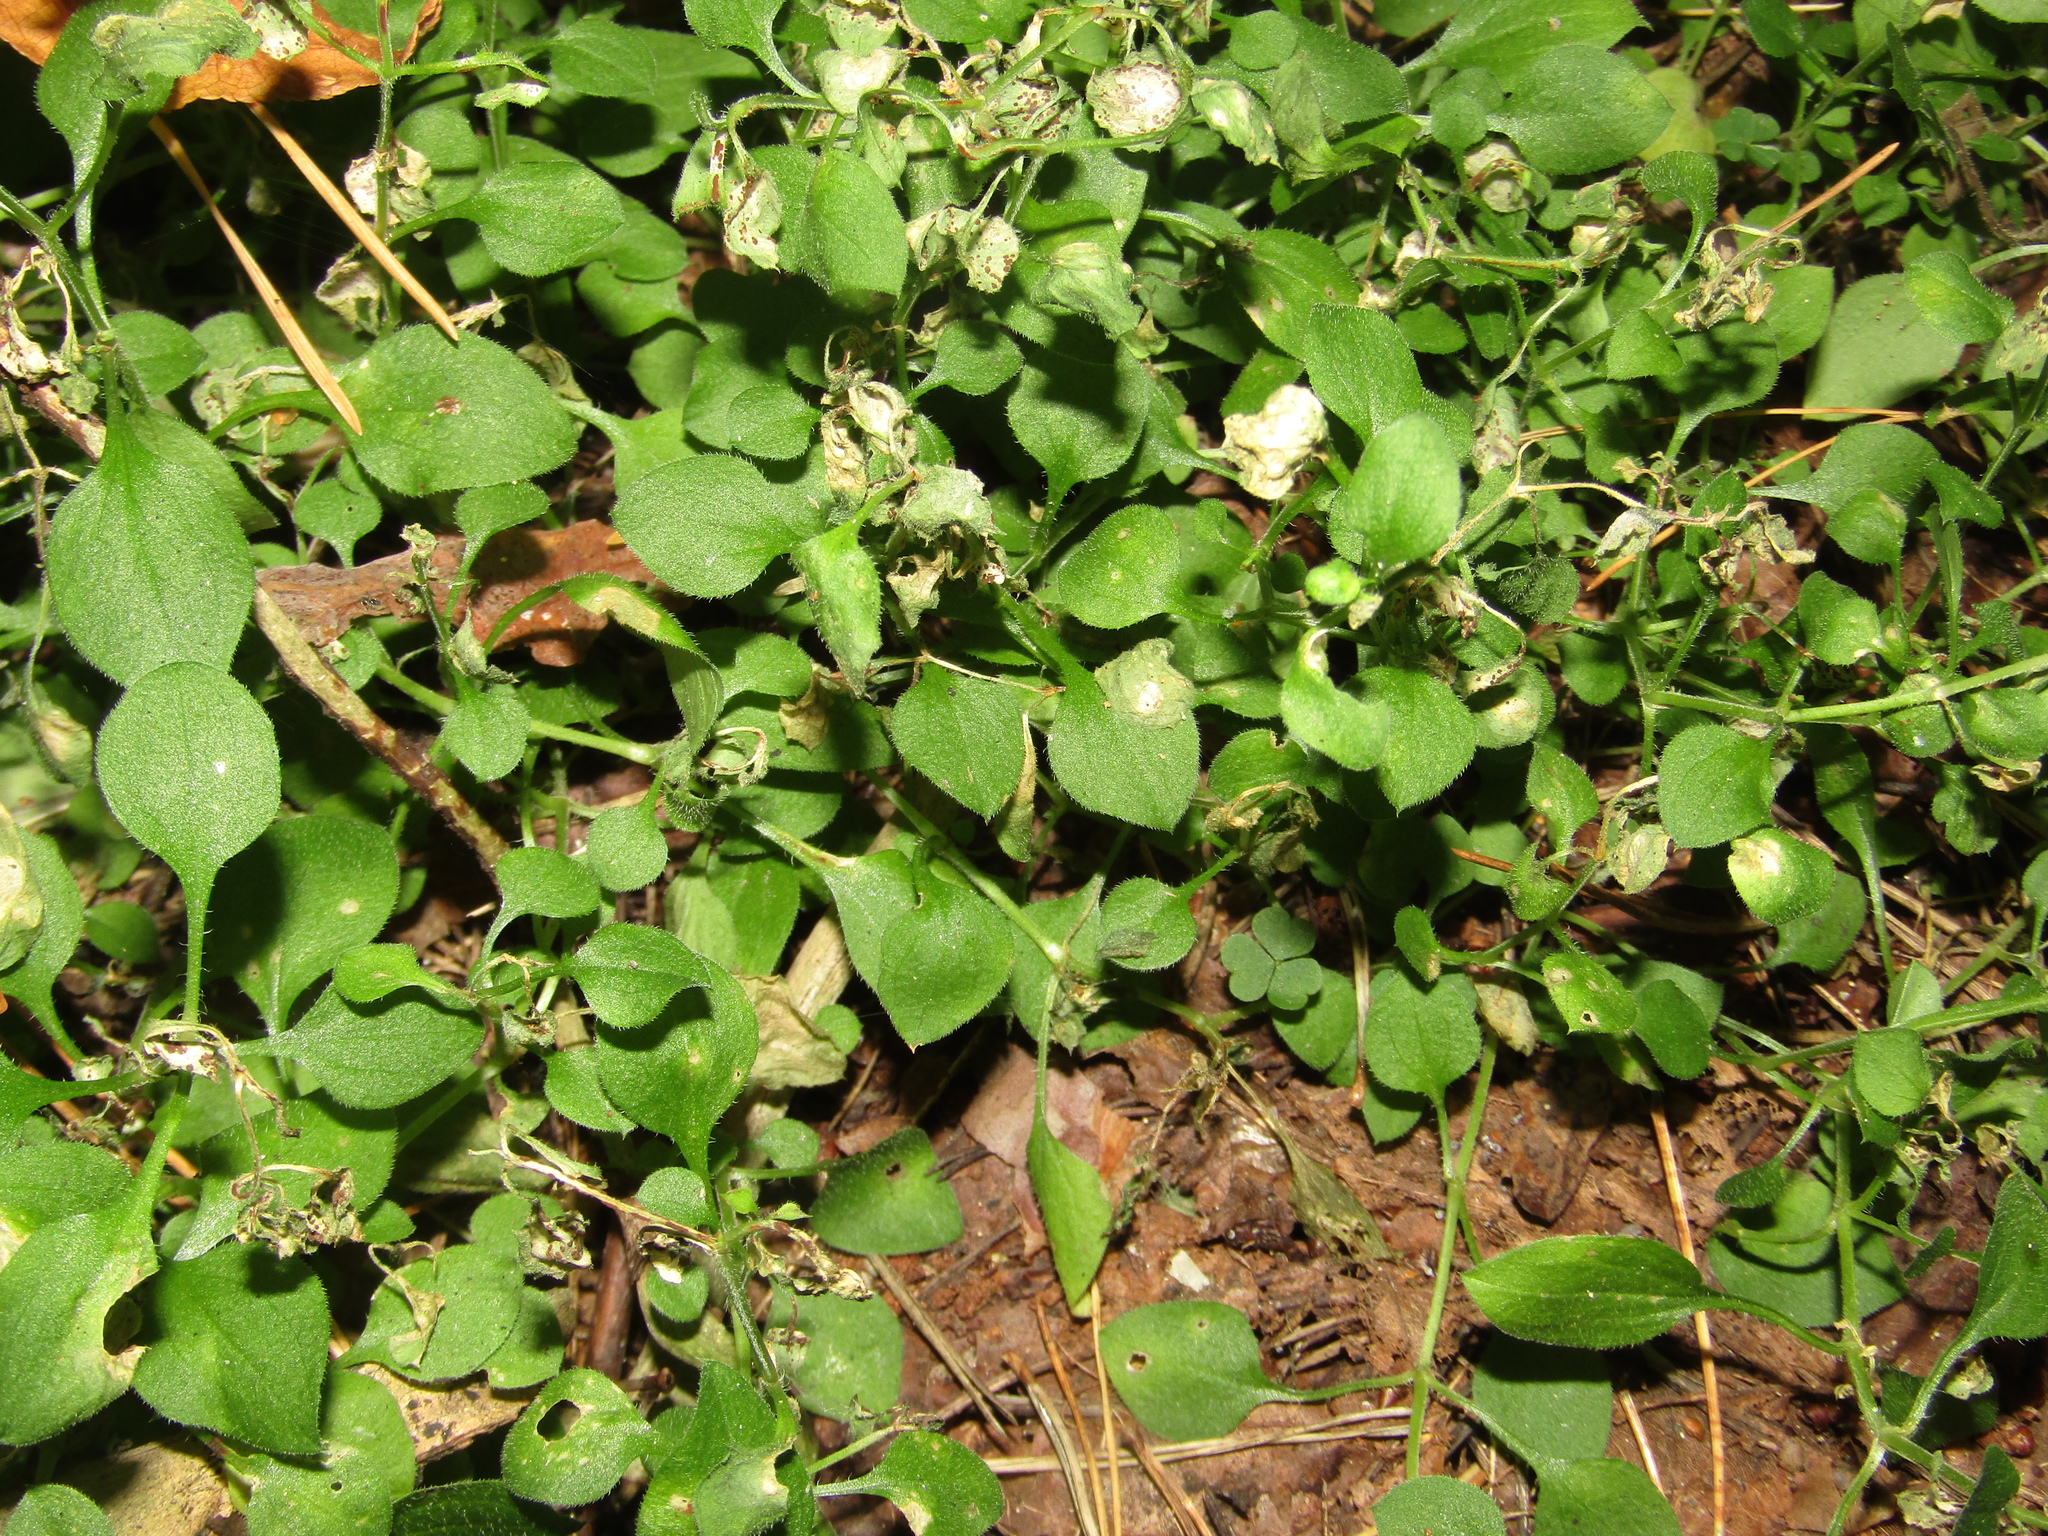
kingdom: Plantae
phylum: Tracheophyta
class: Magnoliopsida
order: Caryophyllales
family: Caryophyllaceae
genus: Moehringia
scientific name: Moehringia trinervia
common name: Three-nerved sandwort
